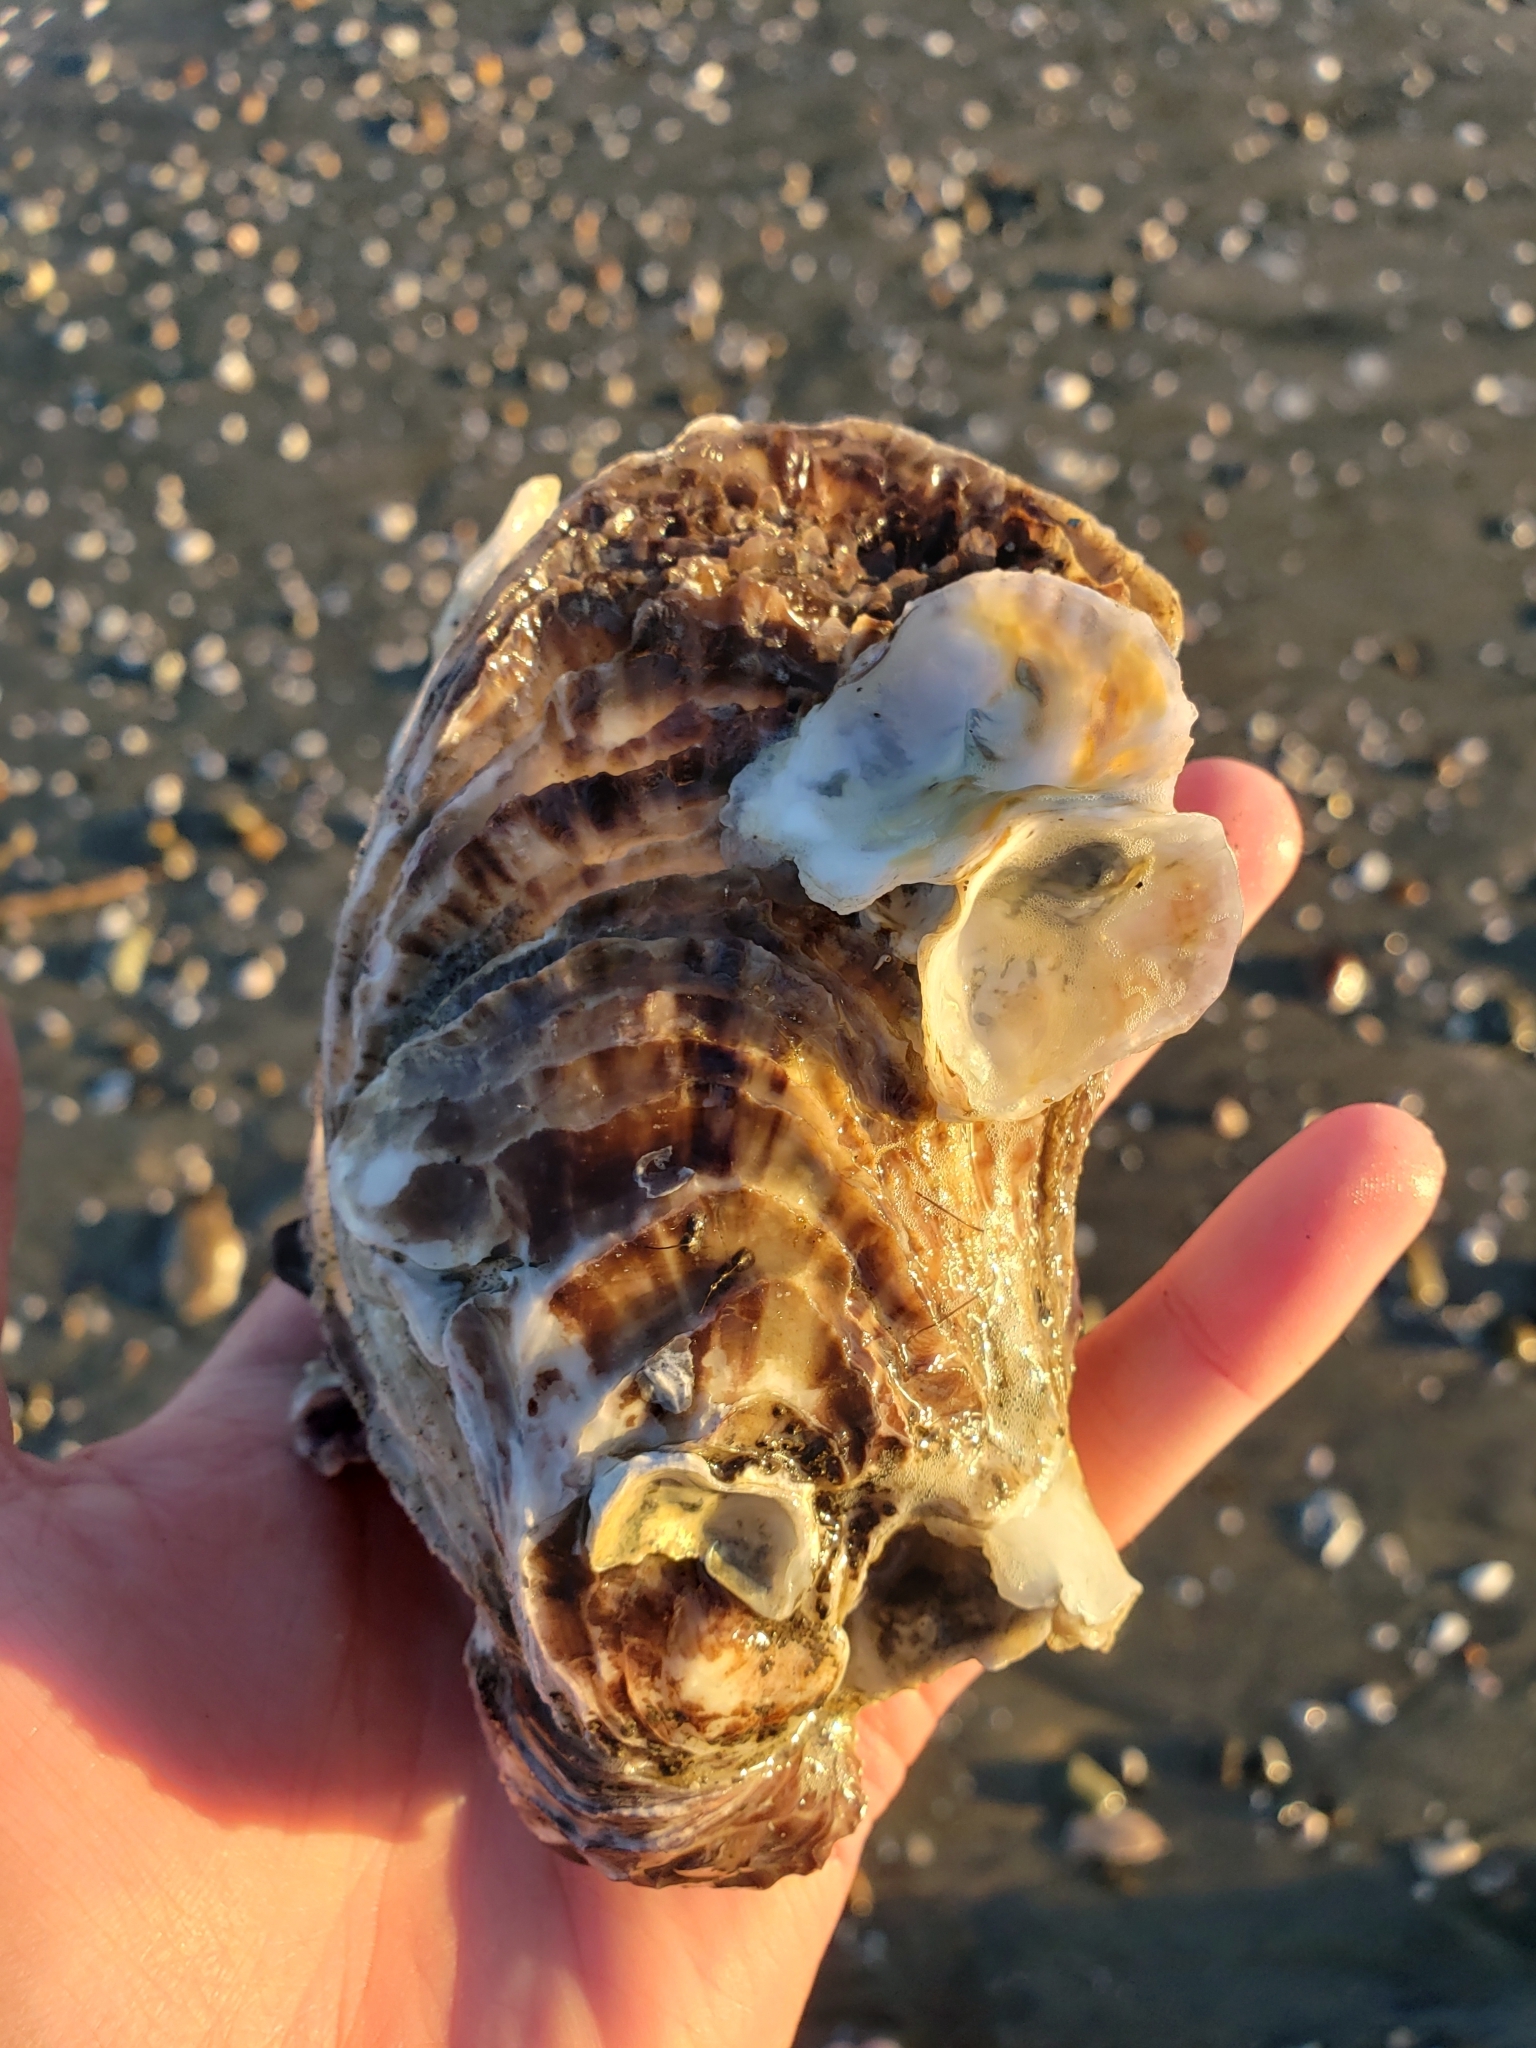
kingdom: Animalia
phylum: Mollusca
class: Bivalvia
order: Ostreida
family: Ostreidae
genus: Magallana
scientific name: Magallana gigas
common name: Pacific oyster
